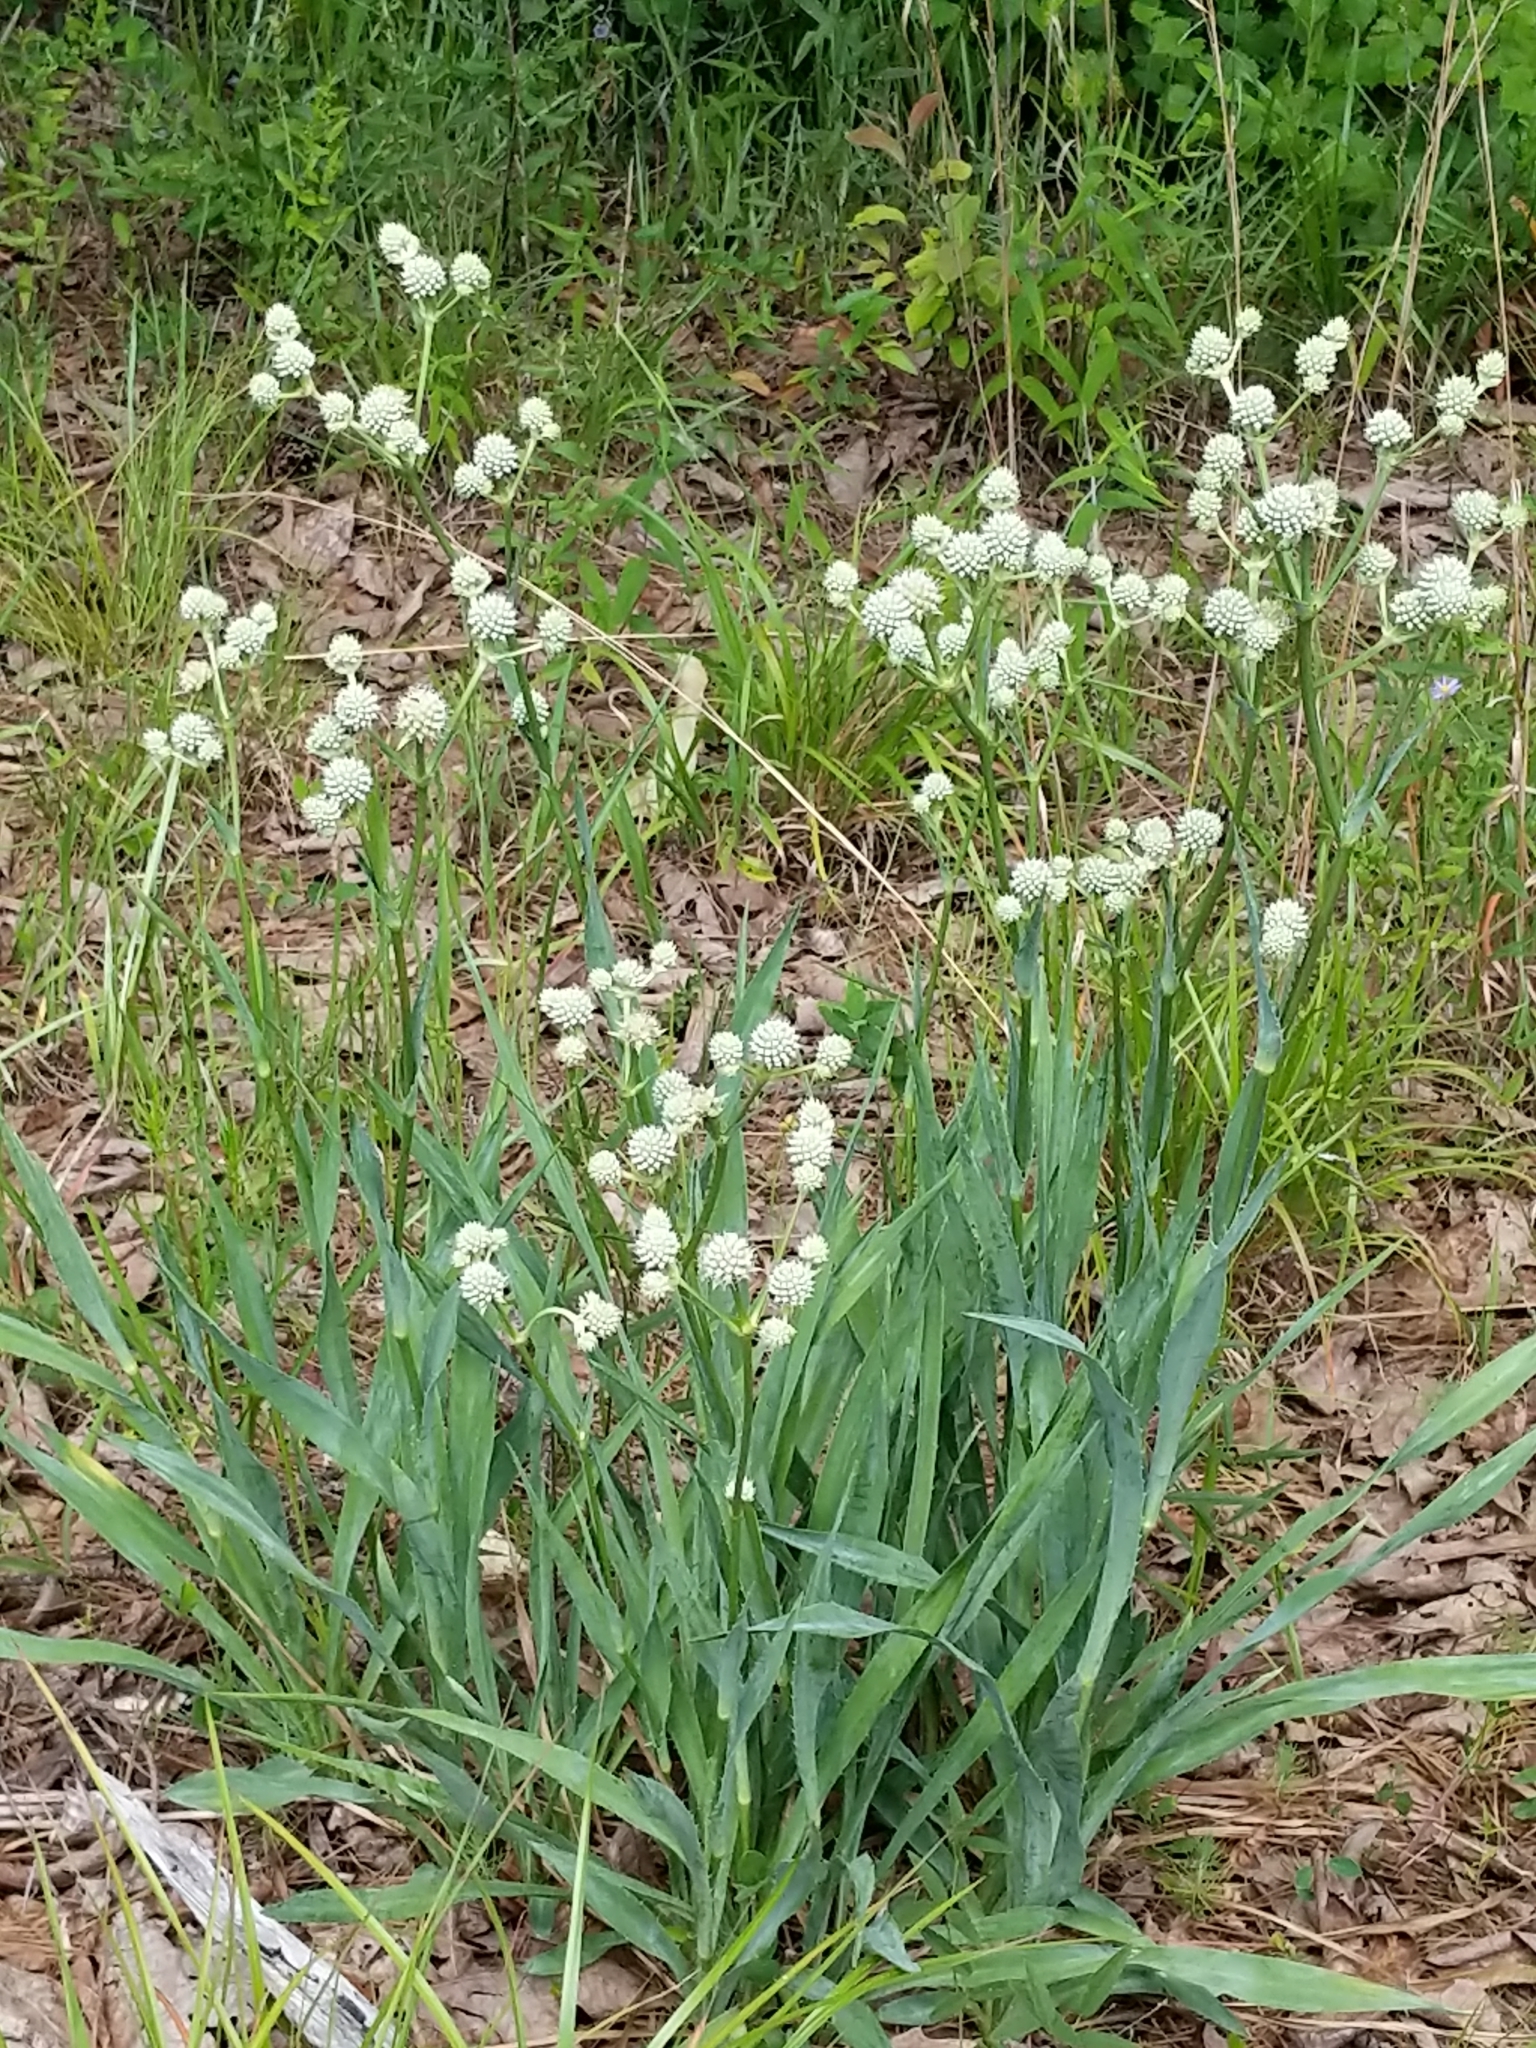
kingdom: Plantae
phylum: Tracheophyta
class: Magnoliopsida
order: Apiales
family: Apiaceae
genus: Eryngium
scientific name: Eryngium yuccifolium
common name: Button eryngo
